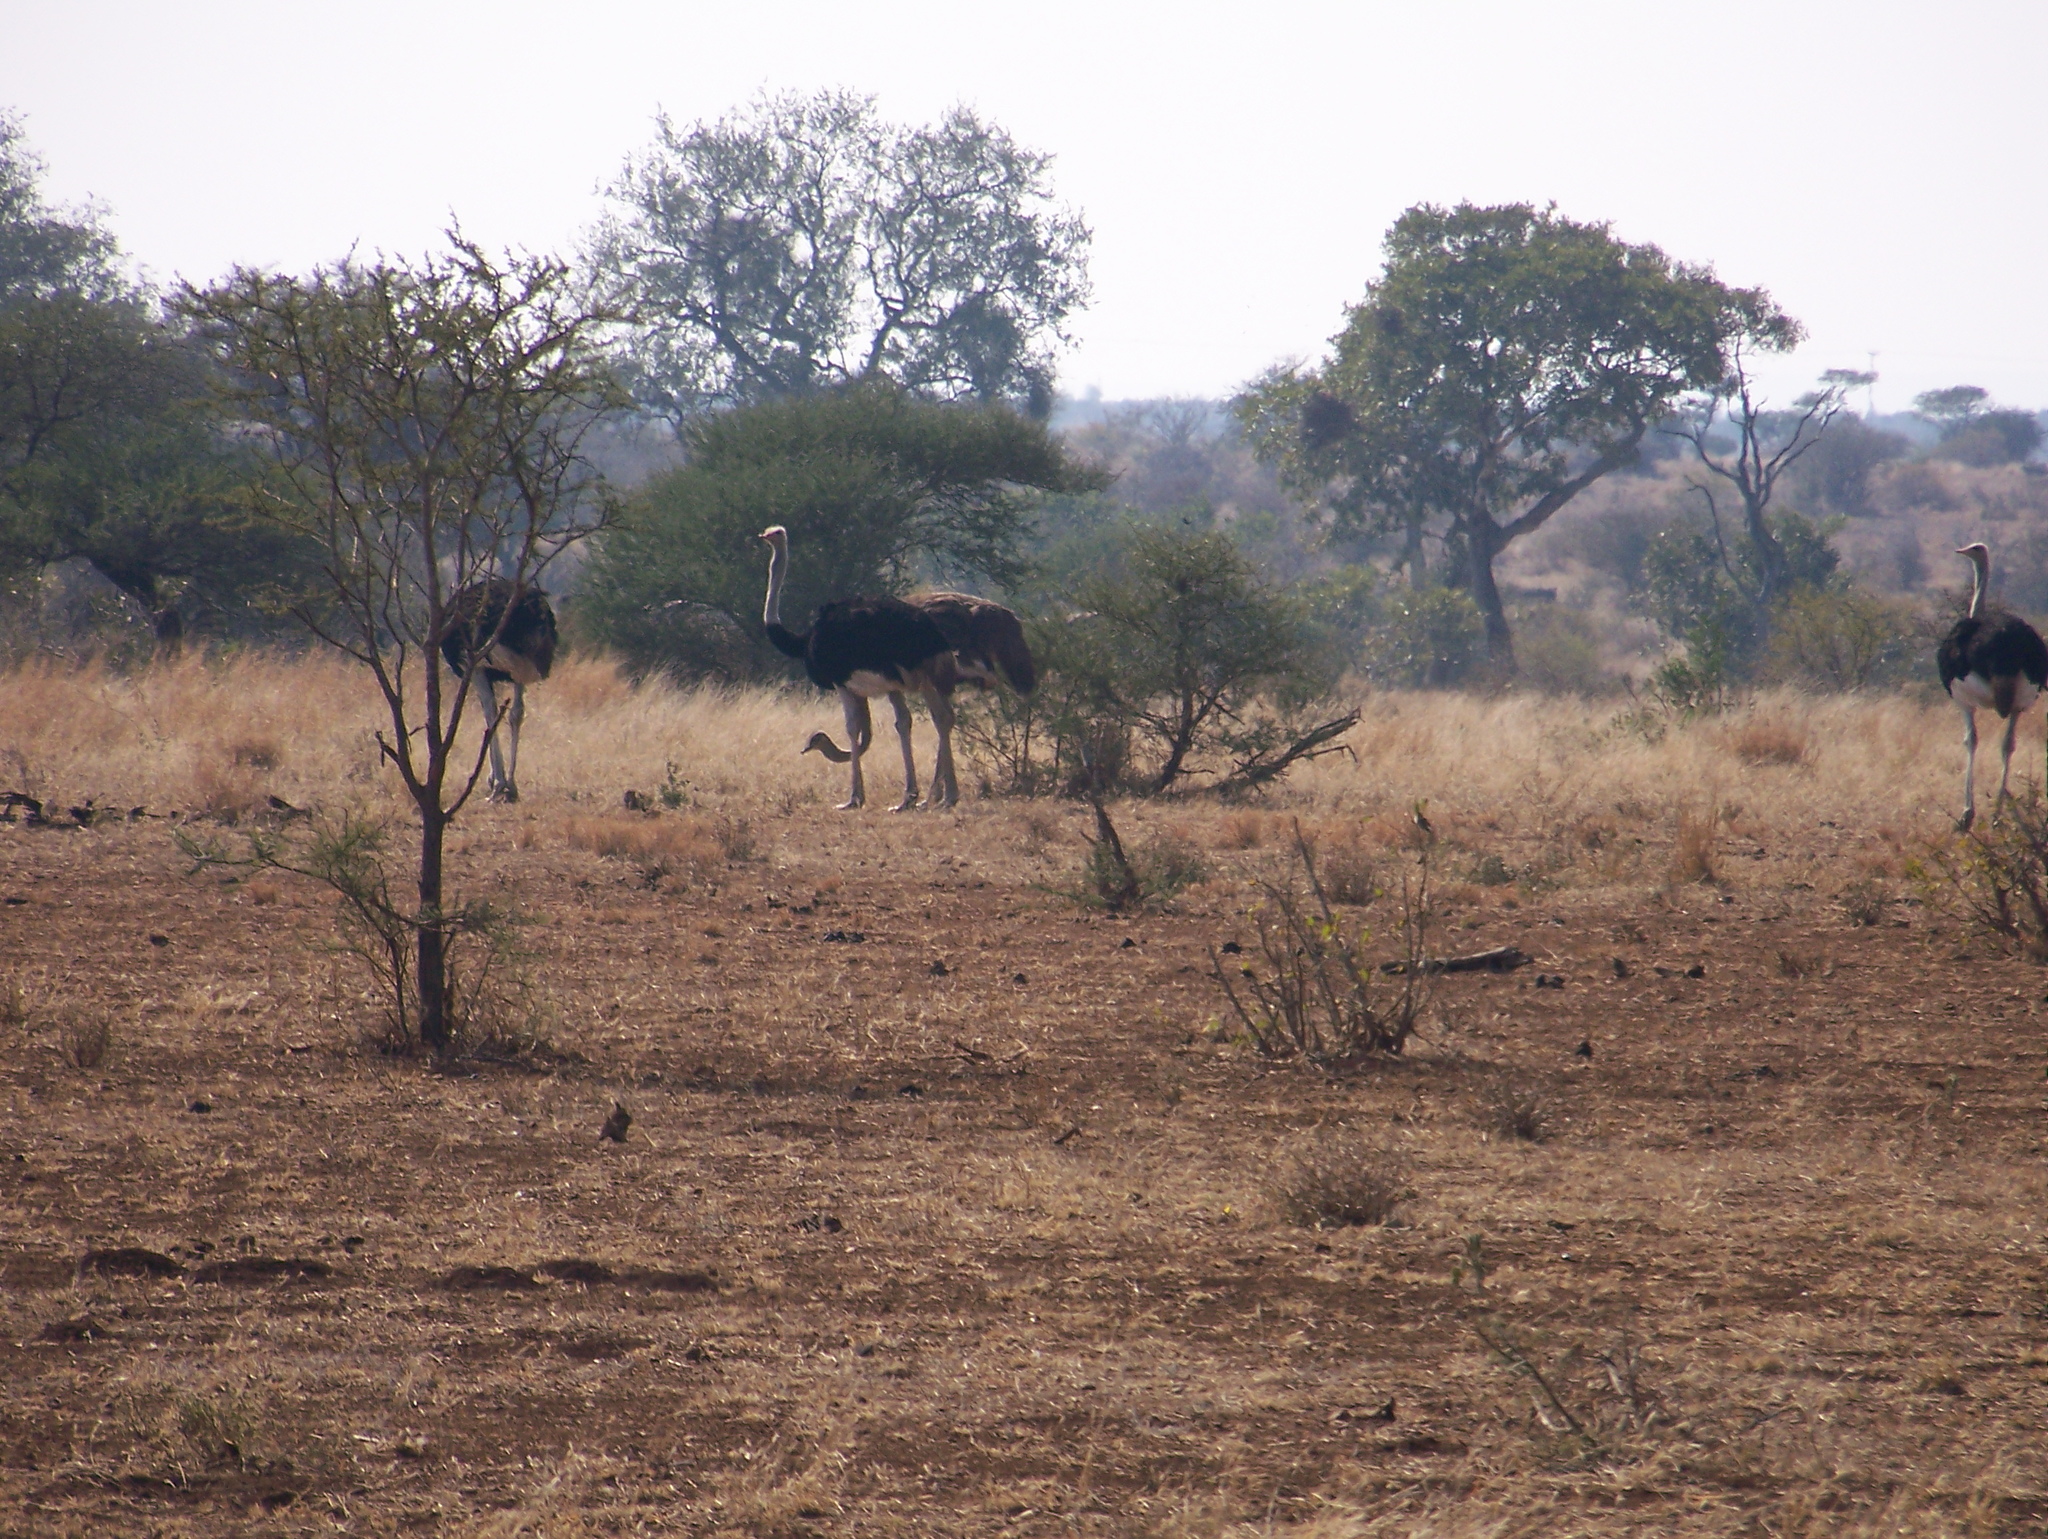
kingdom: Animalia
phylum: Chordata
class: Aves
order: Struthioniformes
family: Struthionidae
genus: Struthio
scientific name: Struthio camelus
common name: Common ostrich
